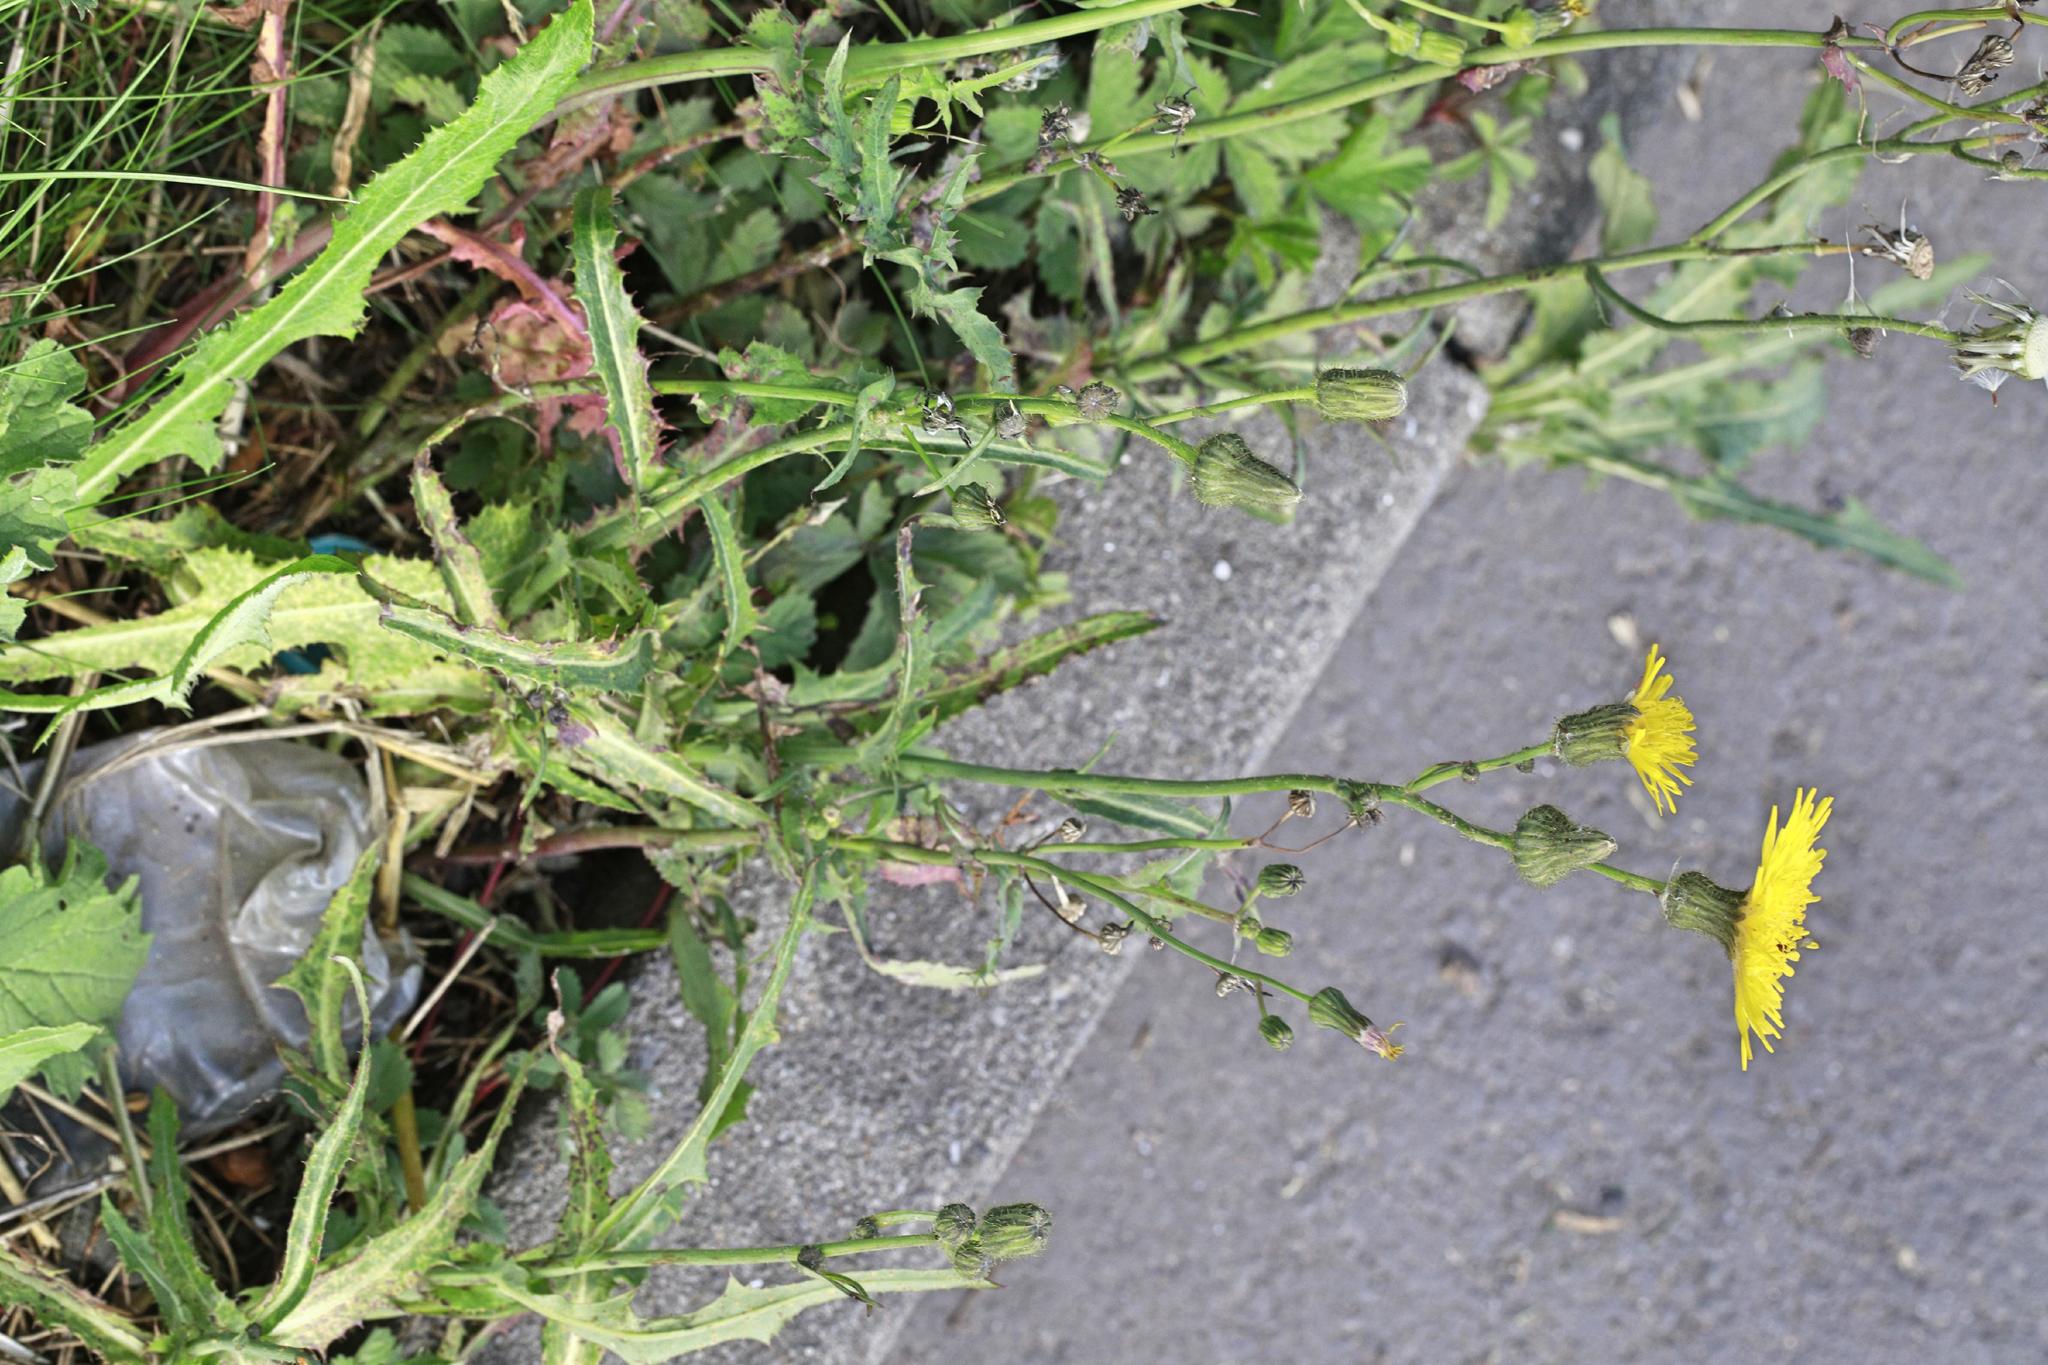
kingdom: Plantae
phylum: Tracheophyta
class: Magnoliopsida
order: Asterales
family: Asteraceae
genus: Sonchus
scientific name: Sonchus arvensis
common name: Perennial sow-thistle
